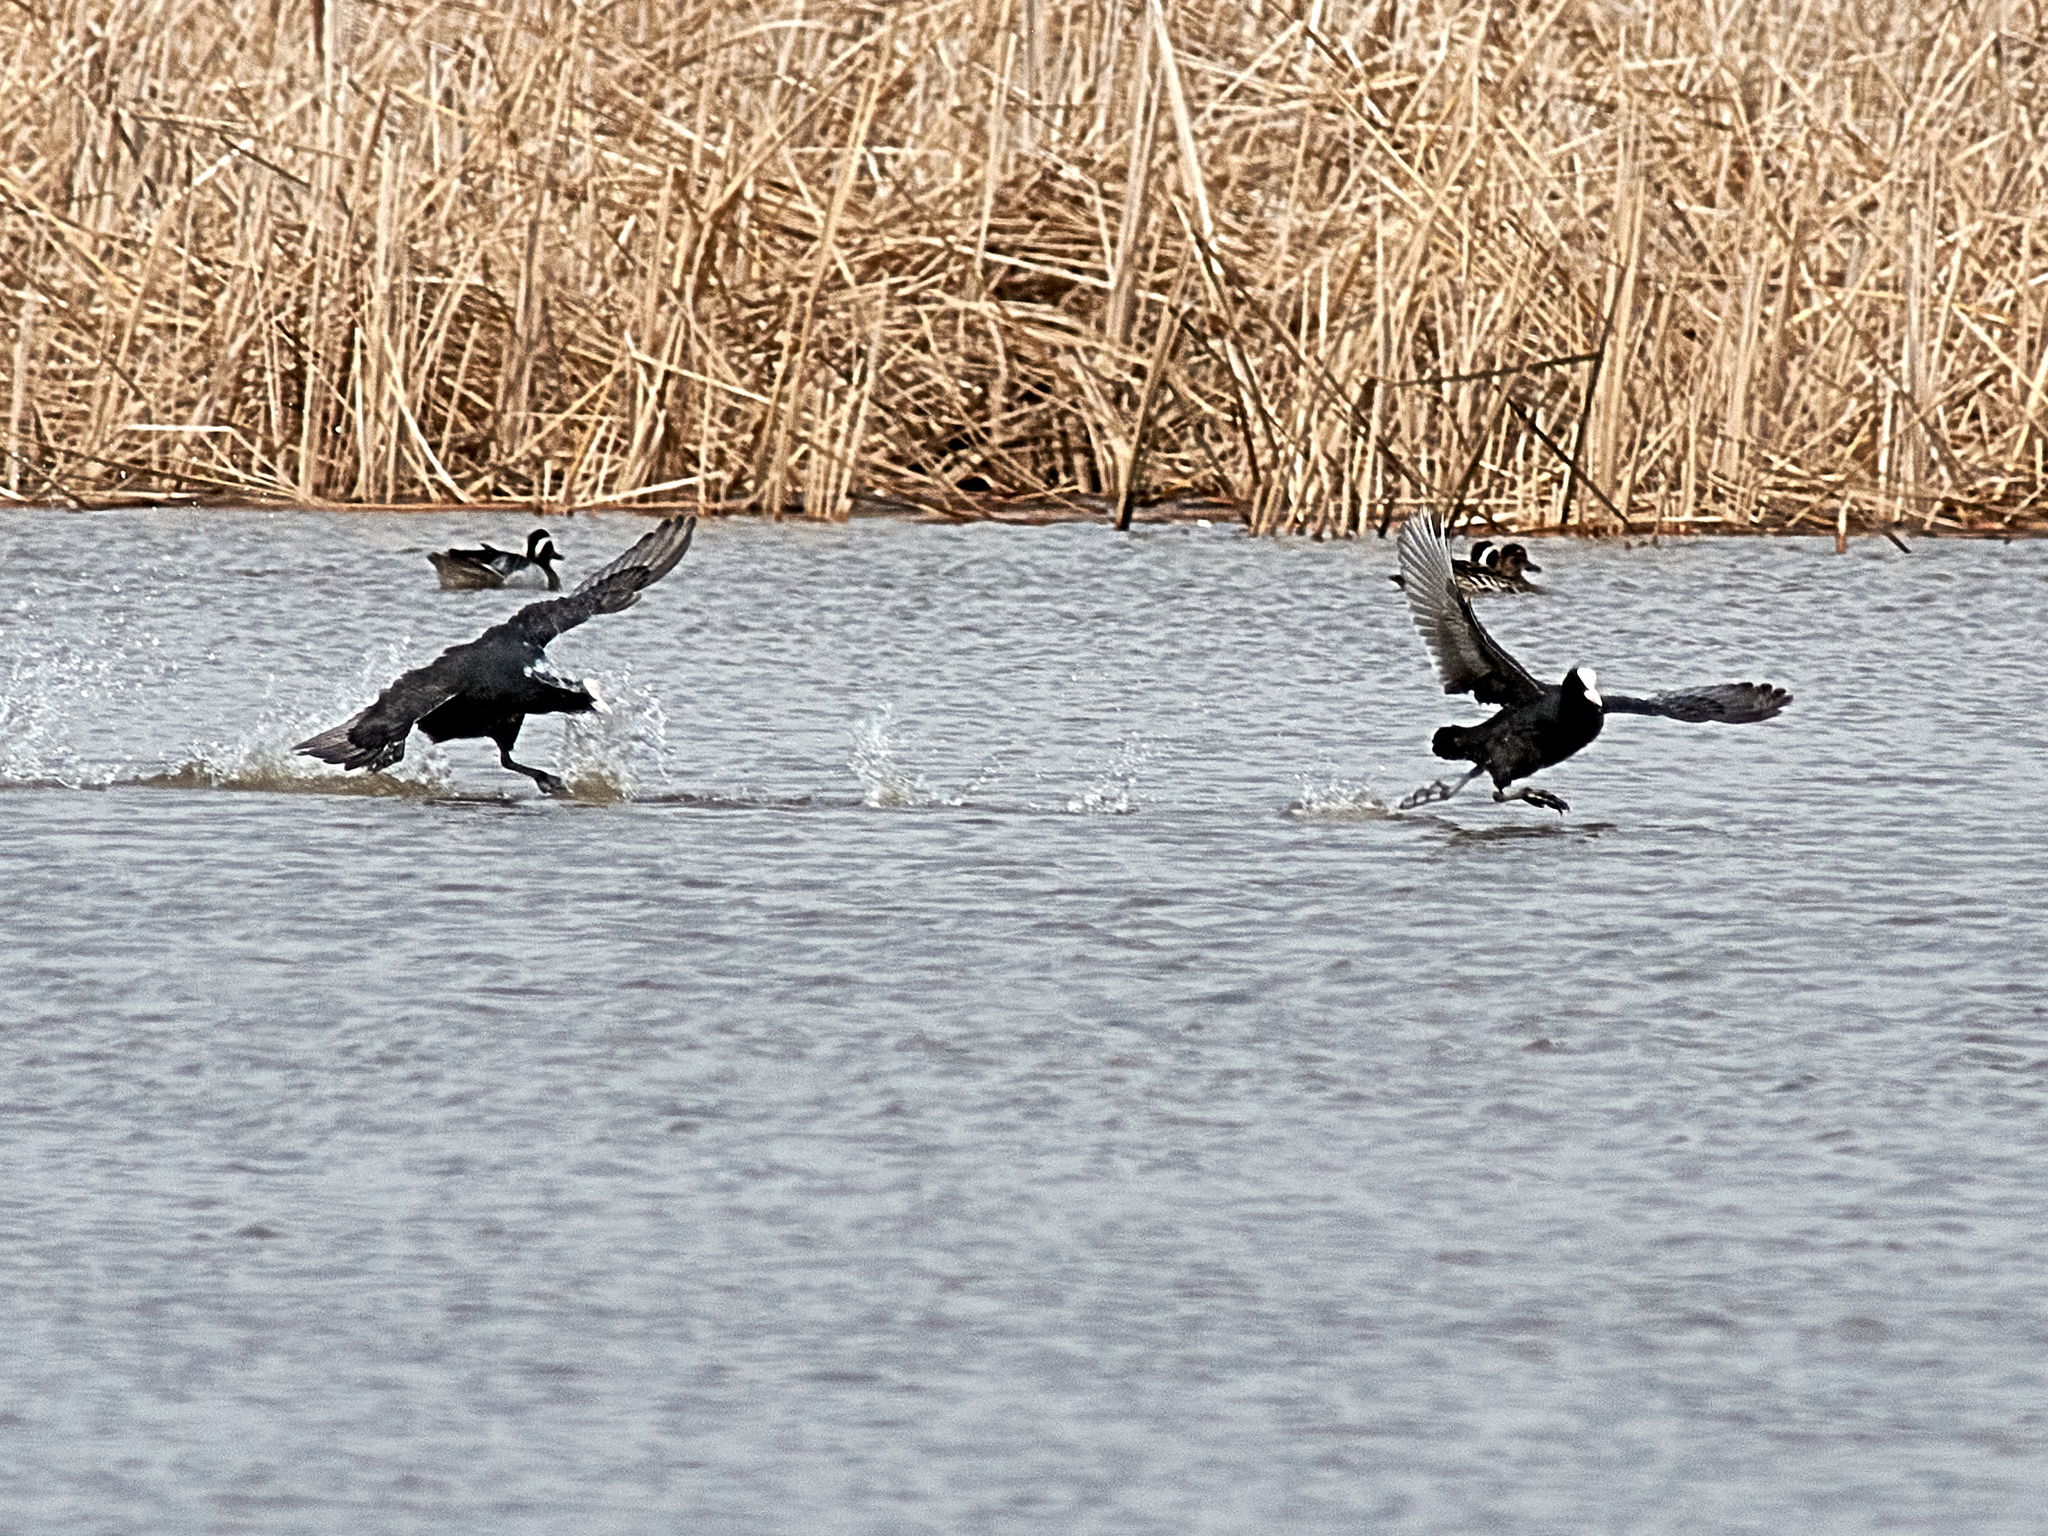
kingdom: Animalia
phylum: Chordata
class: Aves
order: Gruiformes
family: Rallidae
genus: Fulica
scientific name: Fulica atra
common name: Eurasian coot
